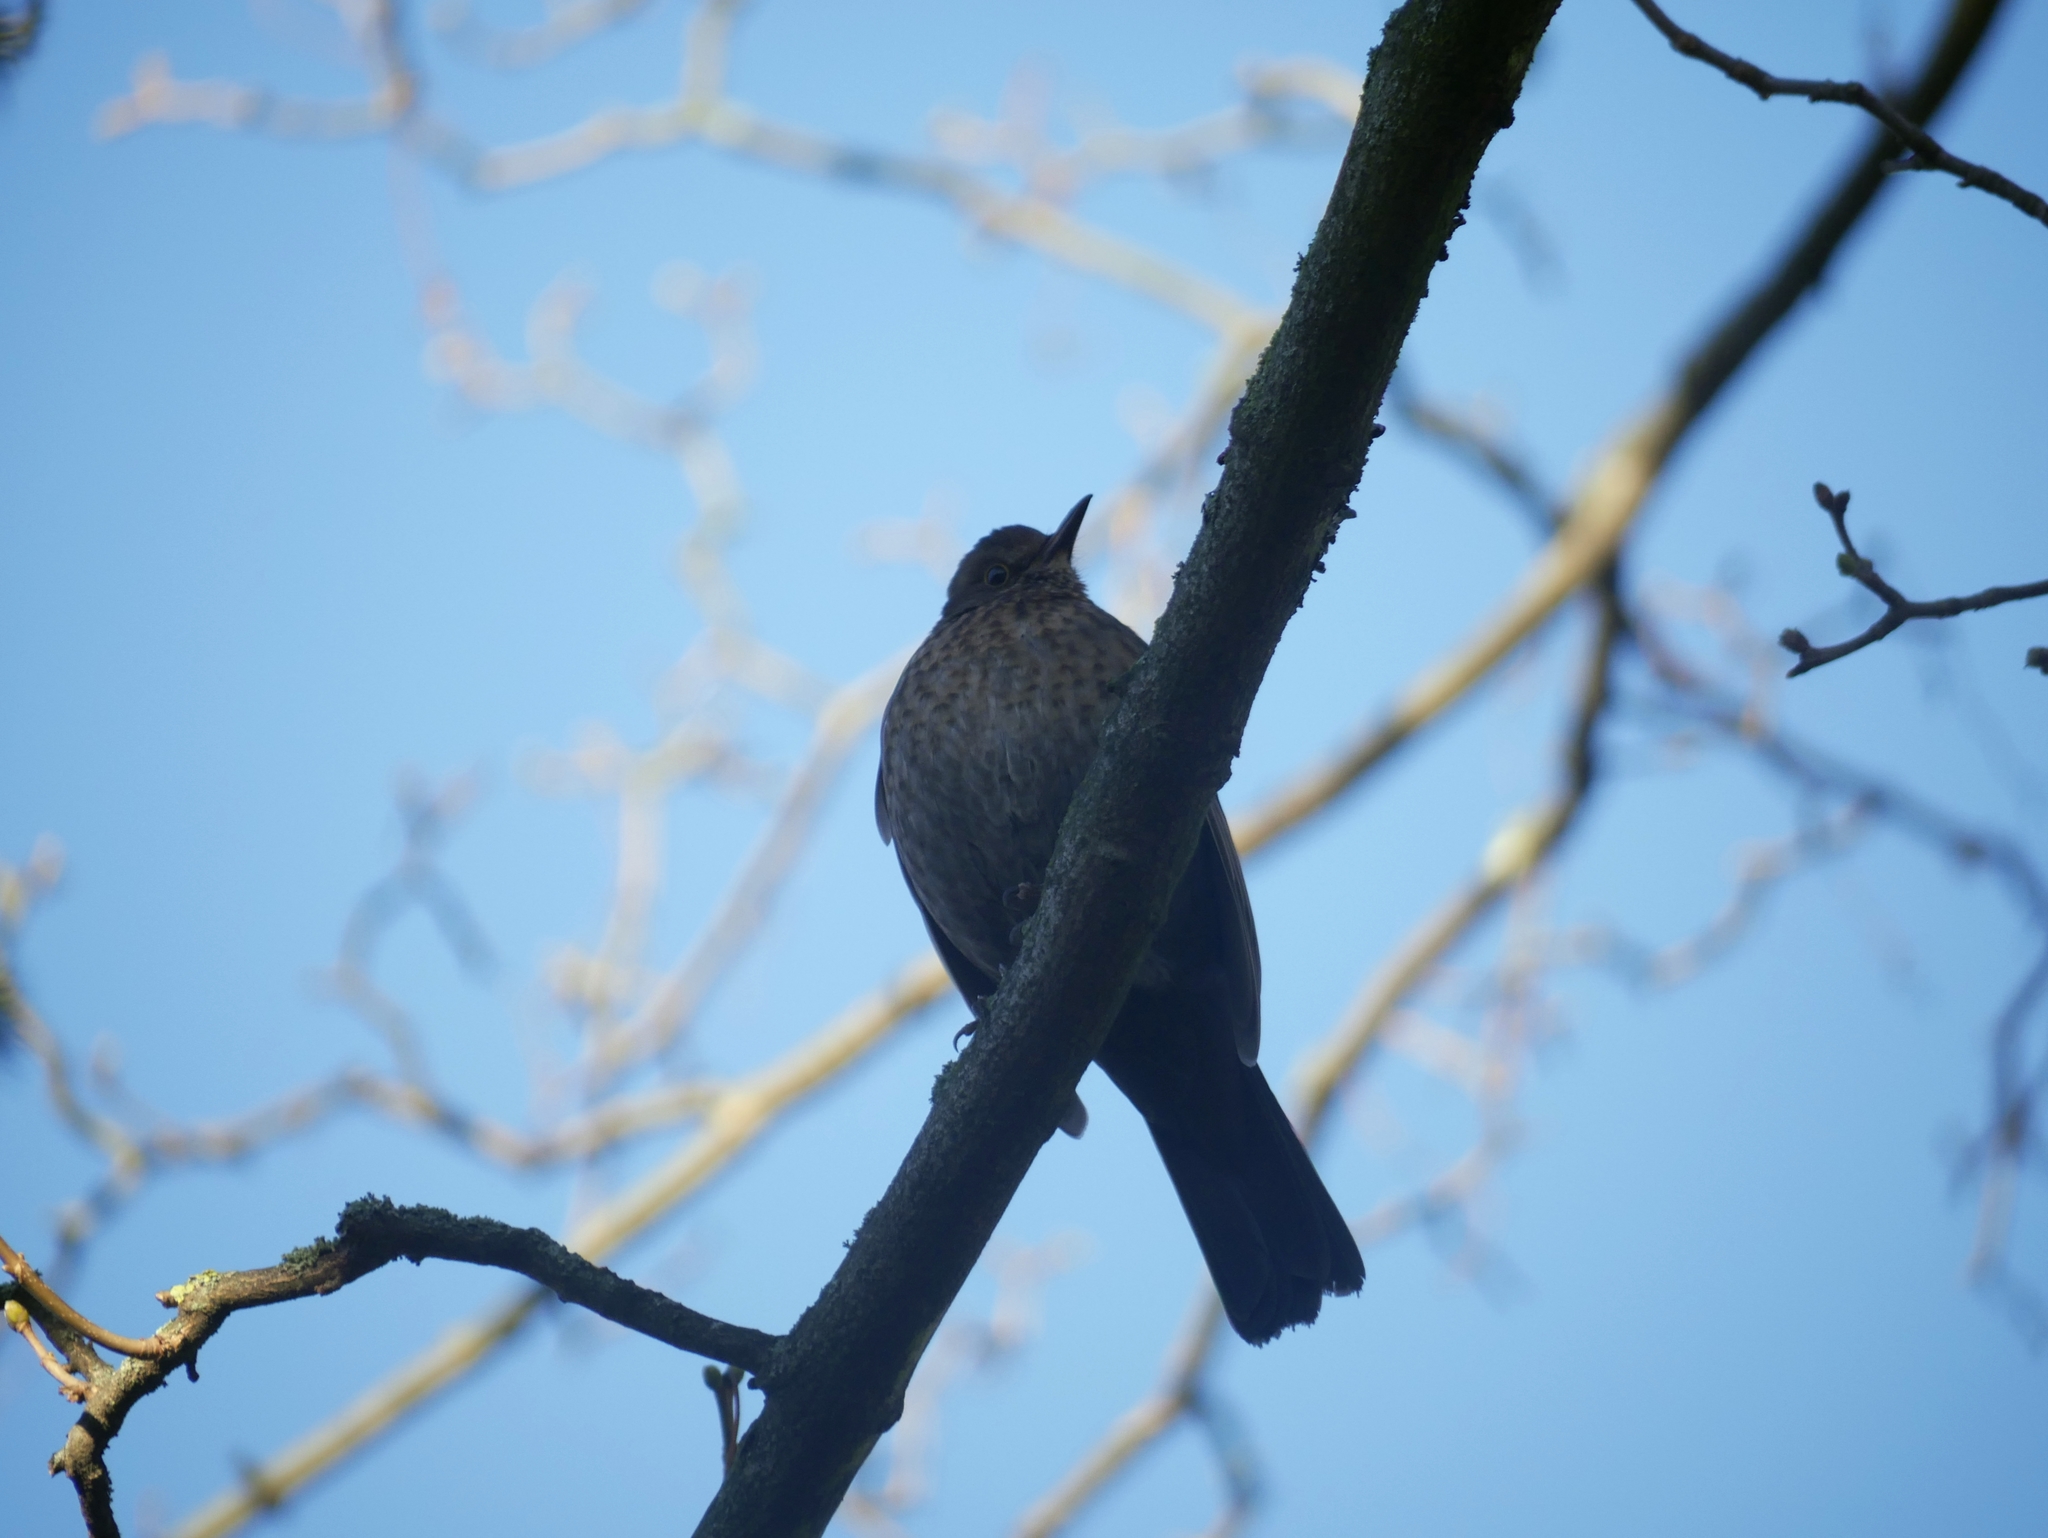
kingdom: Animalia
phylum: Chordata
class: Aves
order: Passeriformes
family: Turdidae
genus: Turdus
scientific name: Turdus merula
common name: Common blackbird
